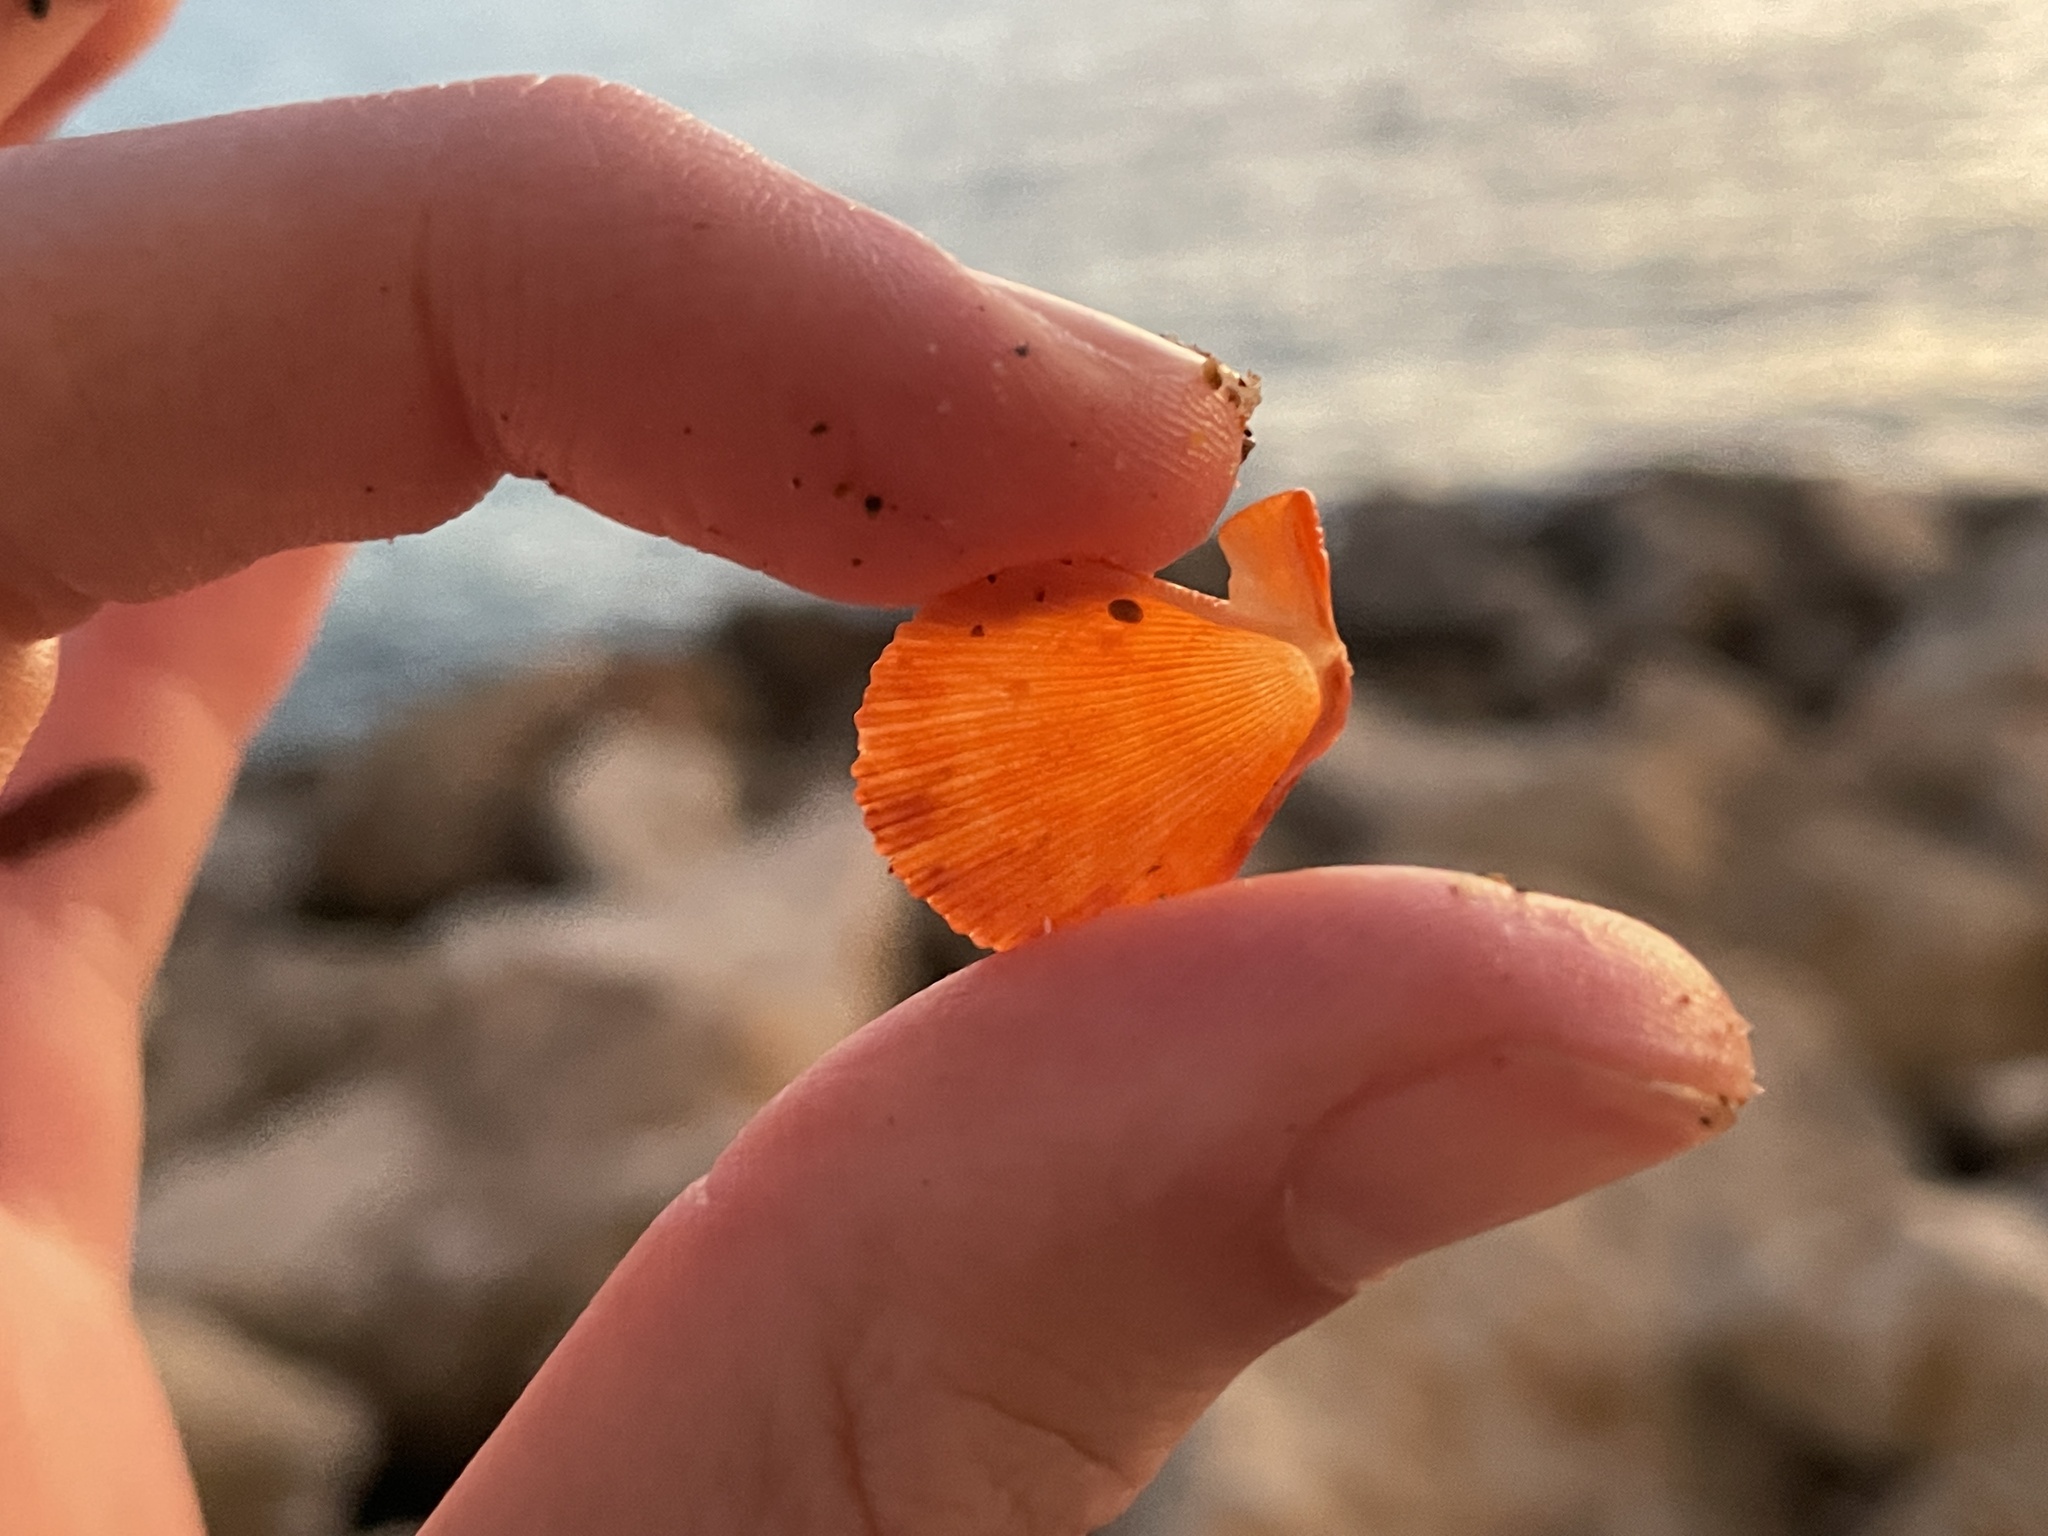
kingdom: Animalia
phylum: Mollusca
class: Bivalvia
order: Pectinida
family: Pectinidae
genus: Mimachlamys
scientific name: Mimachlamys varia
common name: Variegated scallop
